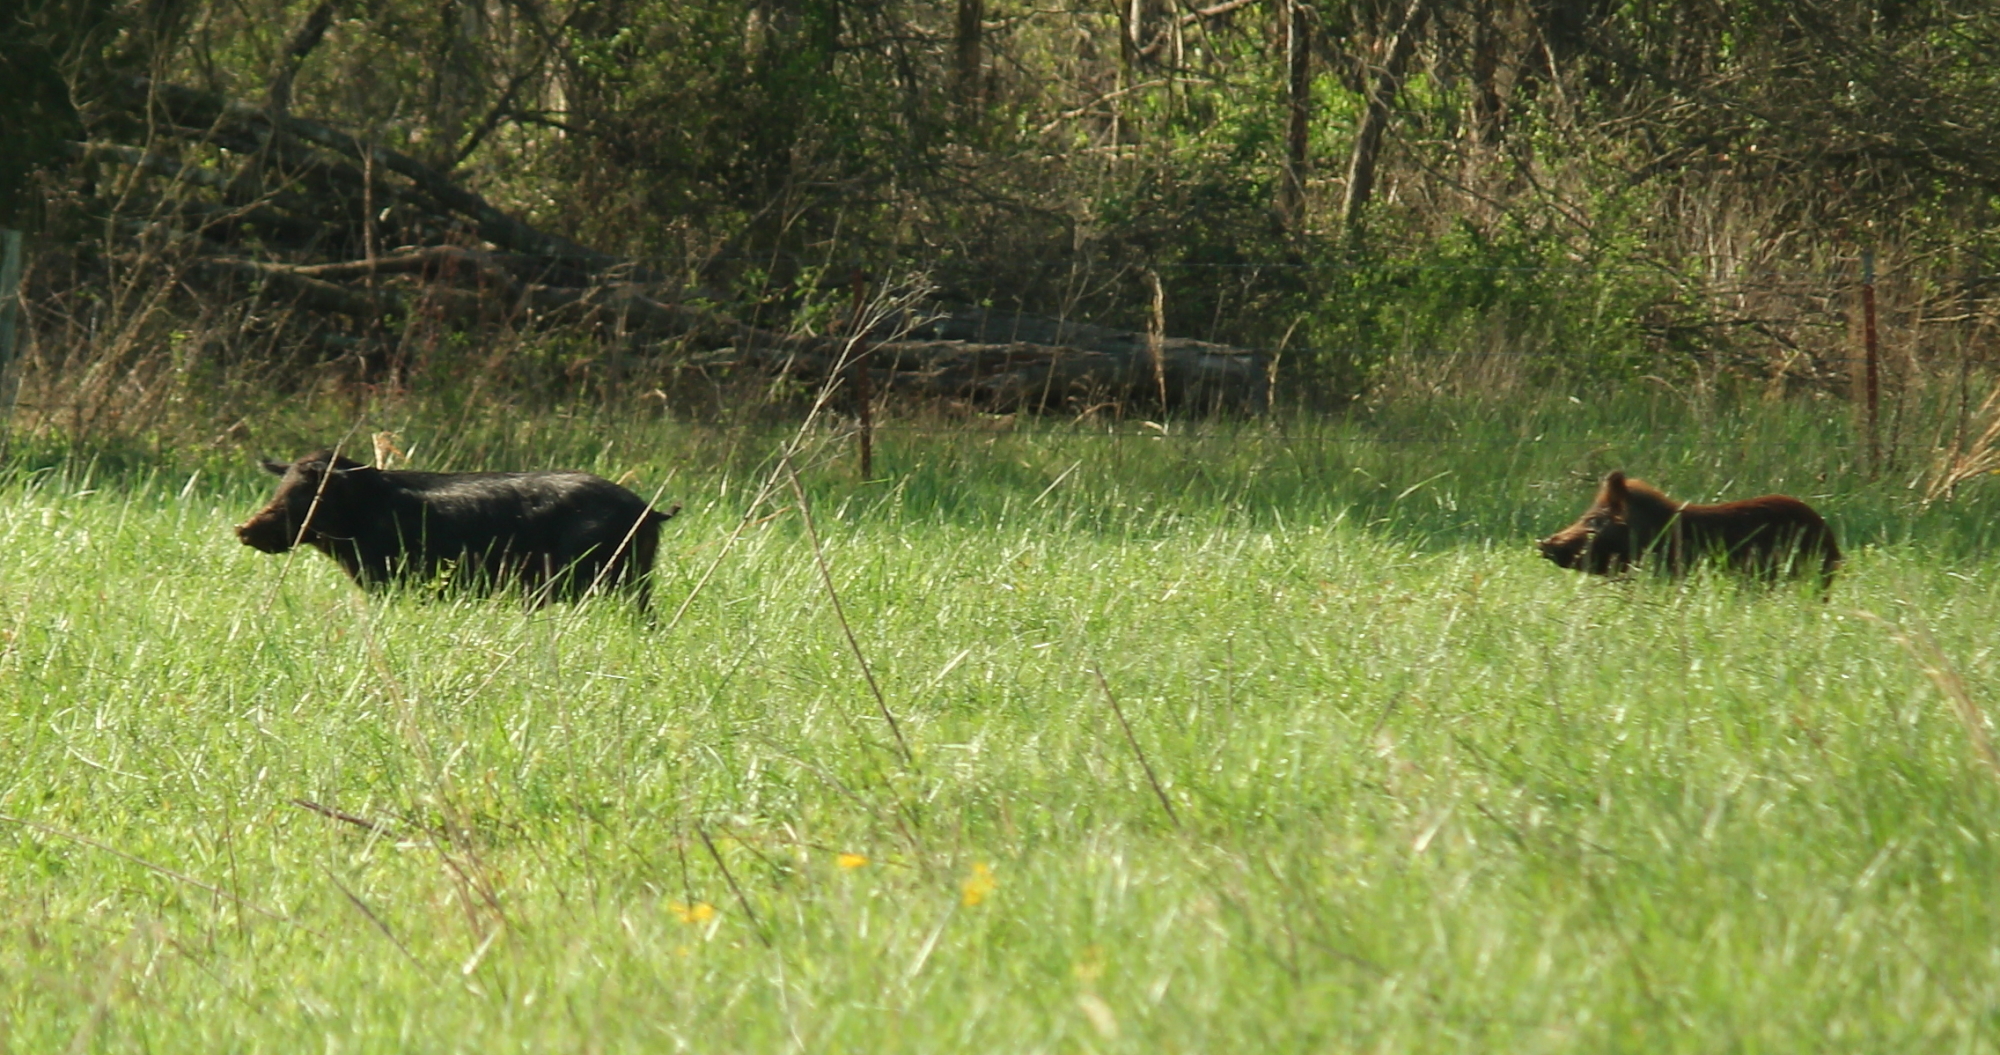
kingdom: Animalia
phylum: Chordata
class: Mammalia
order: Artiodactyla
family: Suidae
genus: Sus
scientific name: Sus scrofa
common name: Wild boar
